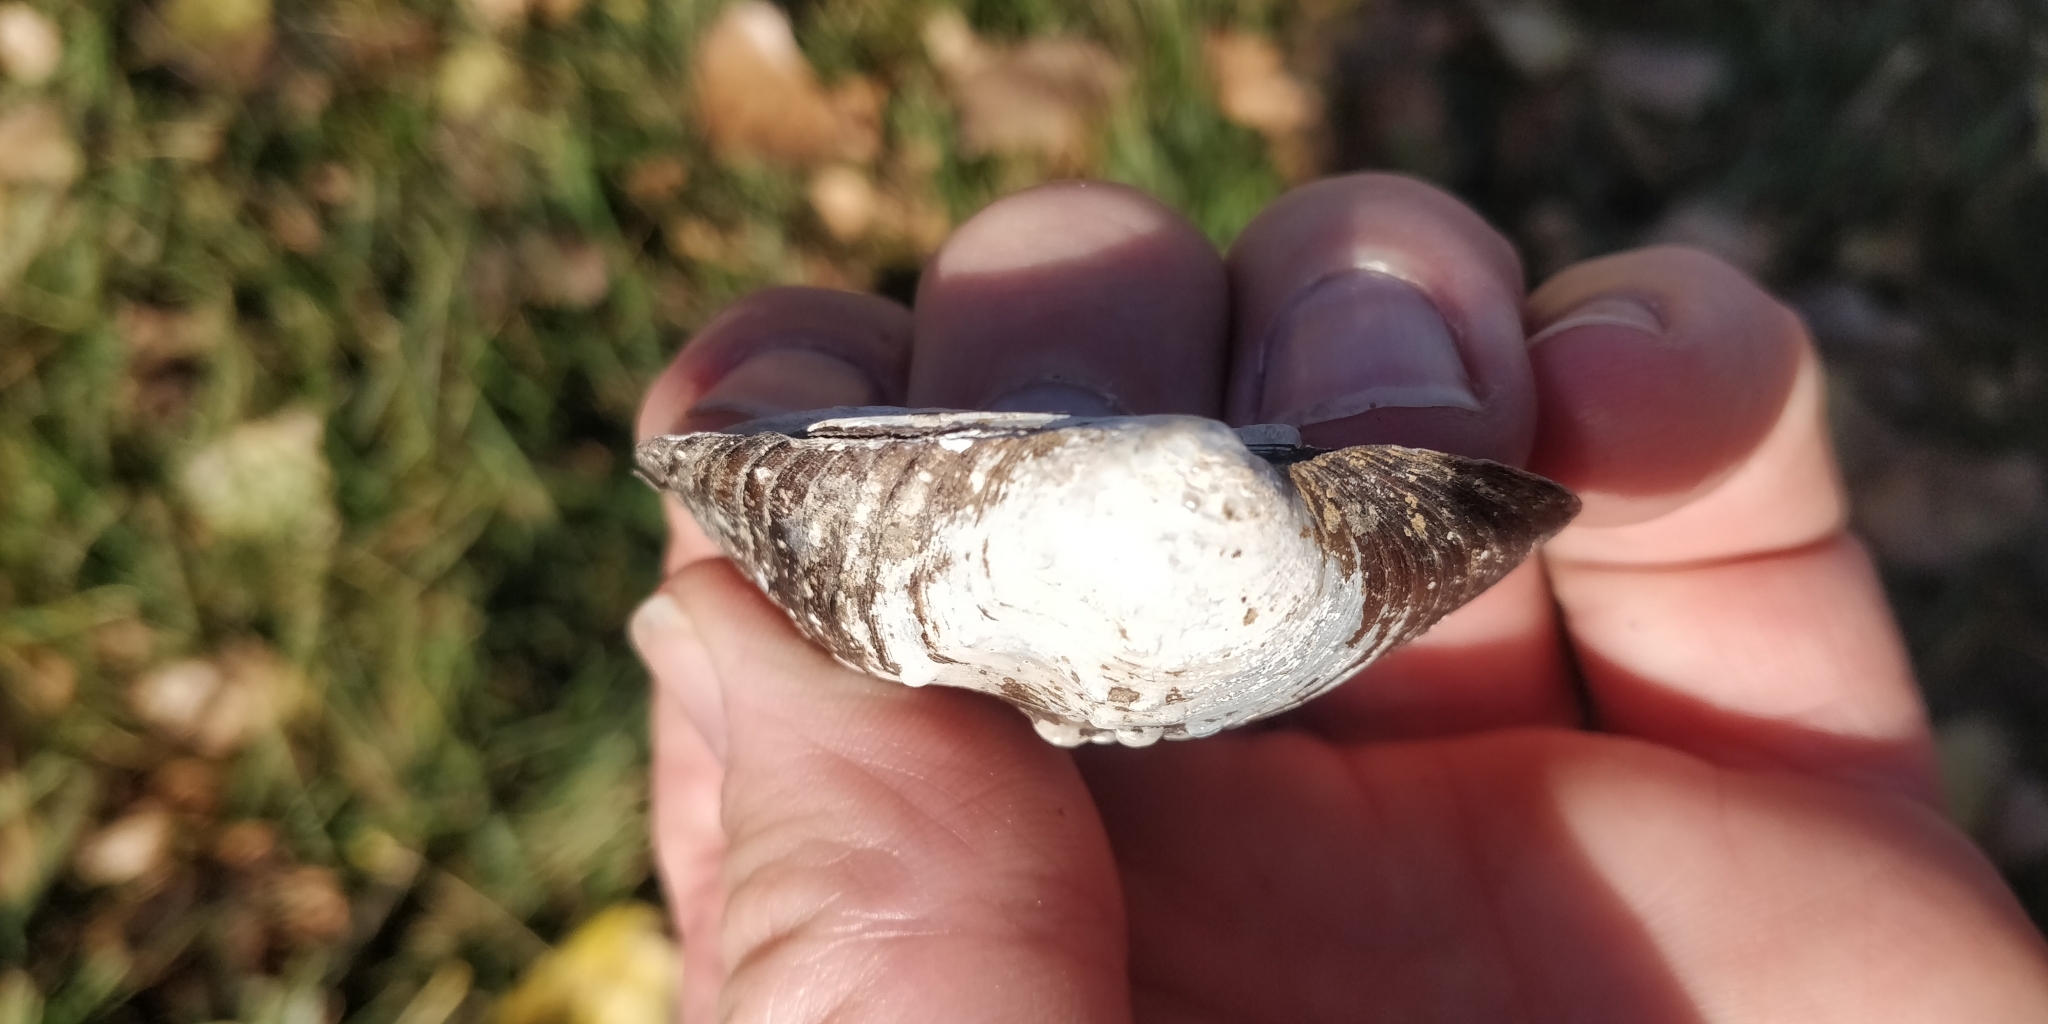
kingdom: Animalia
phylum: Mollusca
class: Bivalvia
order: Unionida
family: Unionidae
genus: Quadrula
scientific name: Quadrula quadrula
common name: Mapleleaf
